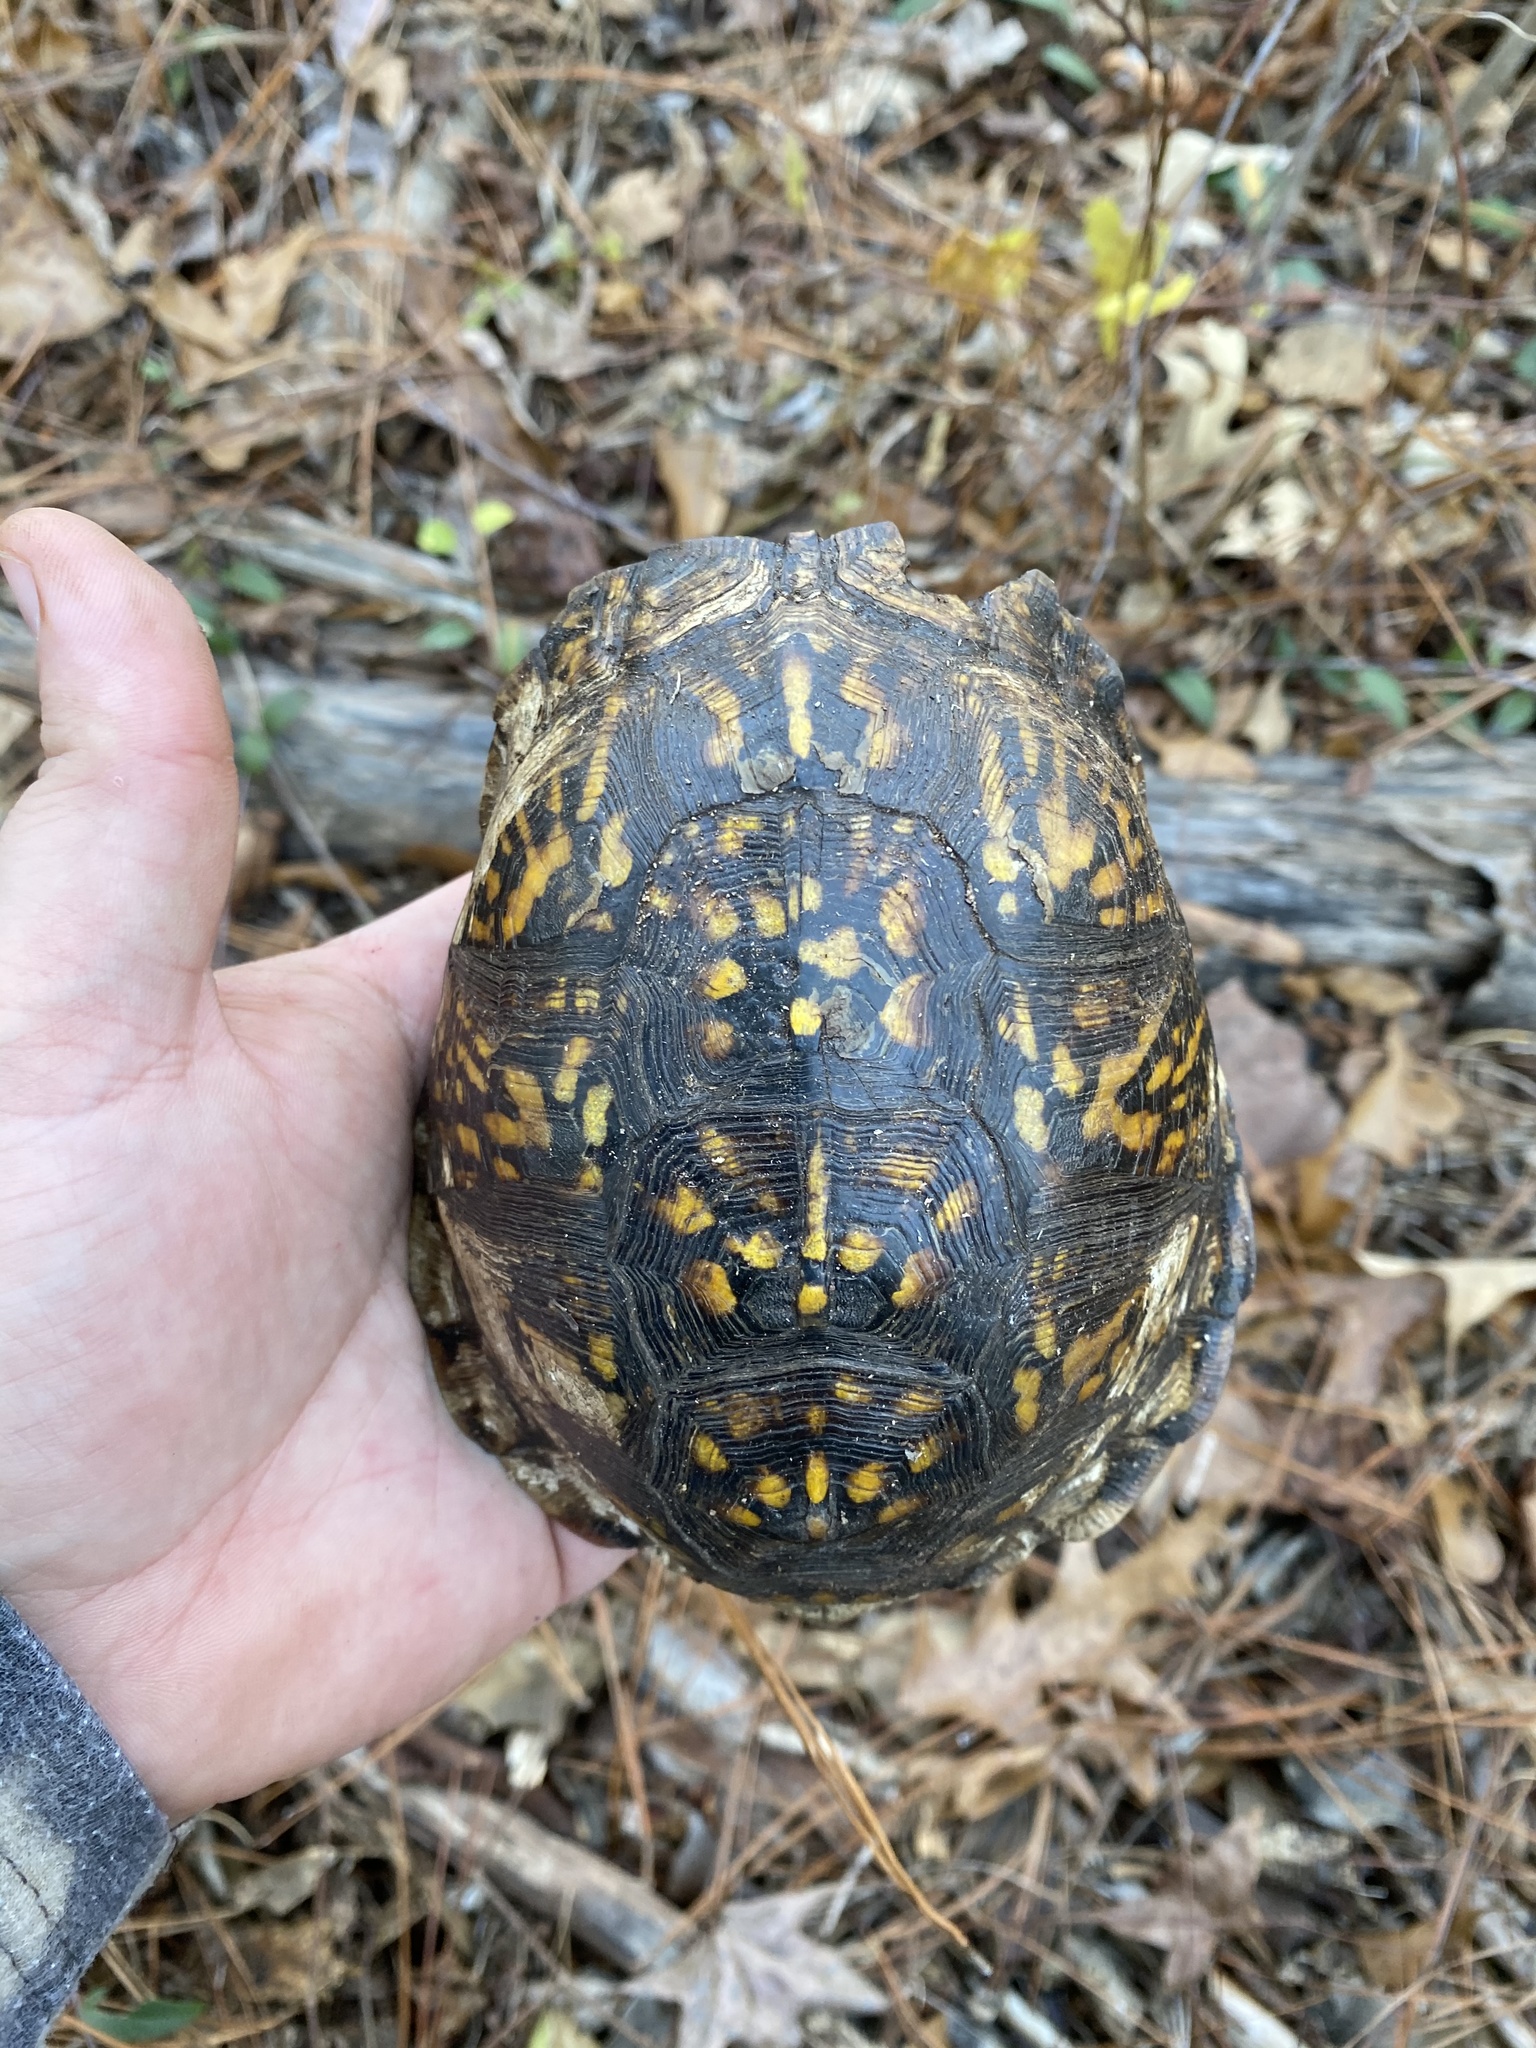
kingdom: Animalia
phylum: Chordata
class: Testudines
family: Emydidae
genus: Terrapene
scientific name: Terrapene carolina
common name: Common box turtle
